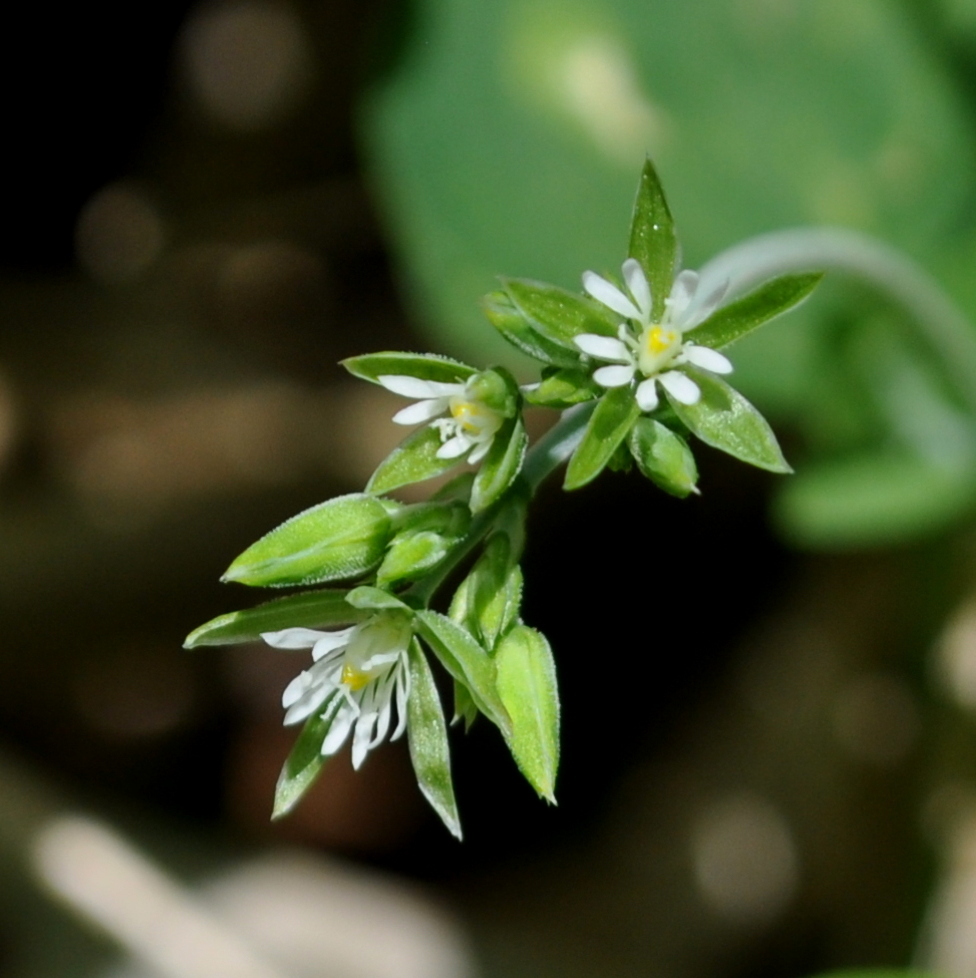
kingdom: Plantae
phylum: Tracheophyta
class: Magnoliopsida
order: Caryophyllales
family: Caryophyllaceae
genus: Drymaria
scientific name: Drymaria cordata
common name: Whitesnow
